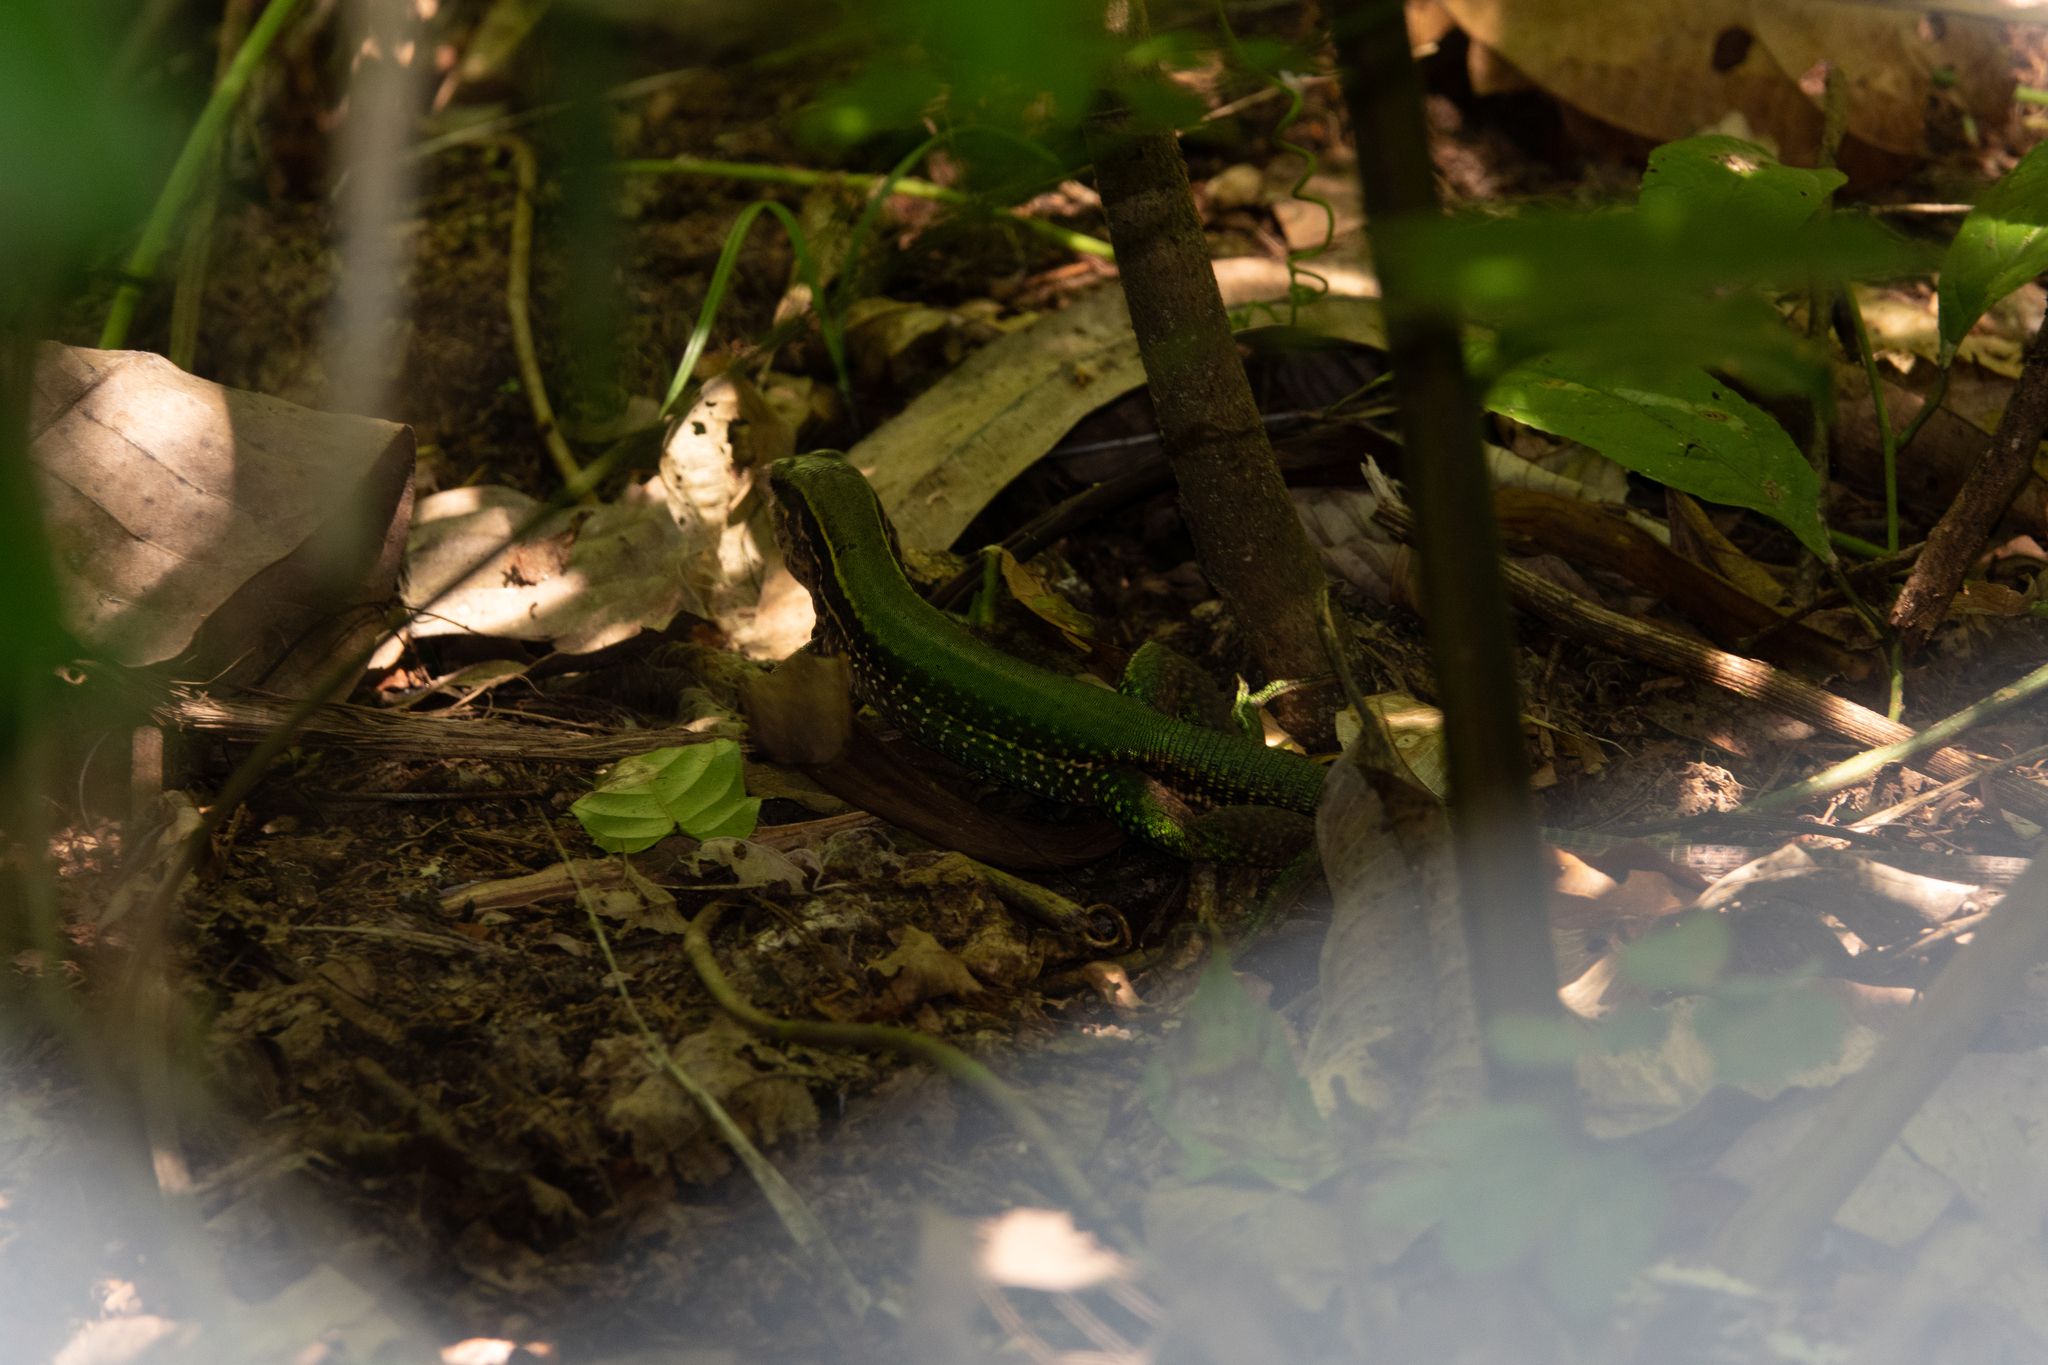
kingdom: Animalia
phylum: Chordata
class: Squamata
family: Teiidae
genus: Ameiva
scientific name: Ameiva ameiva
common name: Giant ameiva
